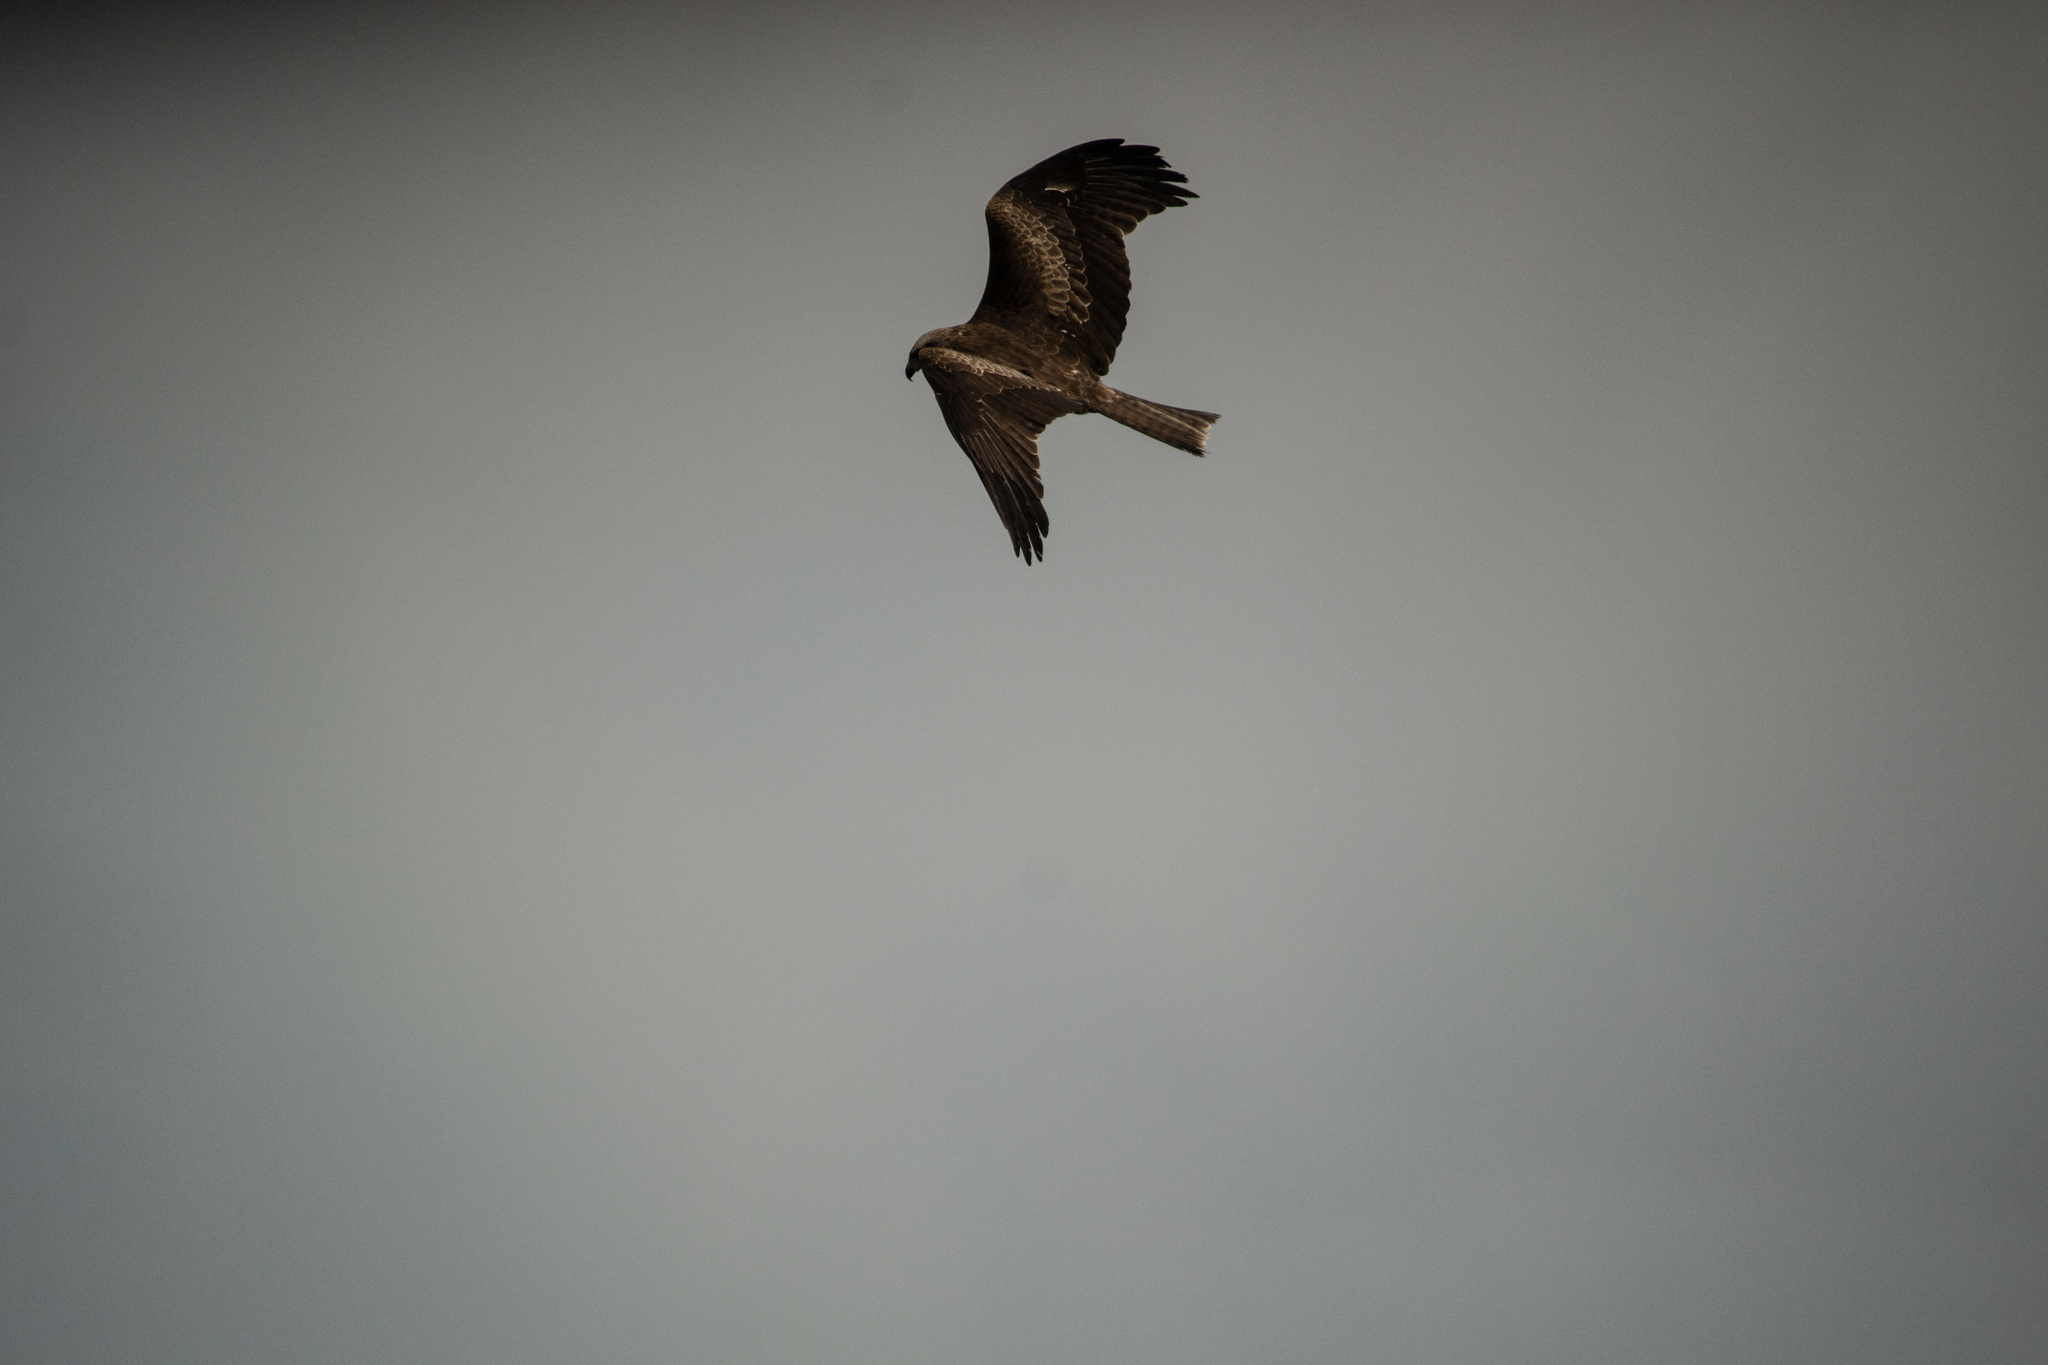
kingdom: Animalia
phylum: Chordata
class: Aves
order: Accipitriformes
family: Accipitridae
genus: Milvus
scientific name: Milvus migrans
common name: Black kite
